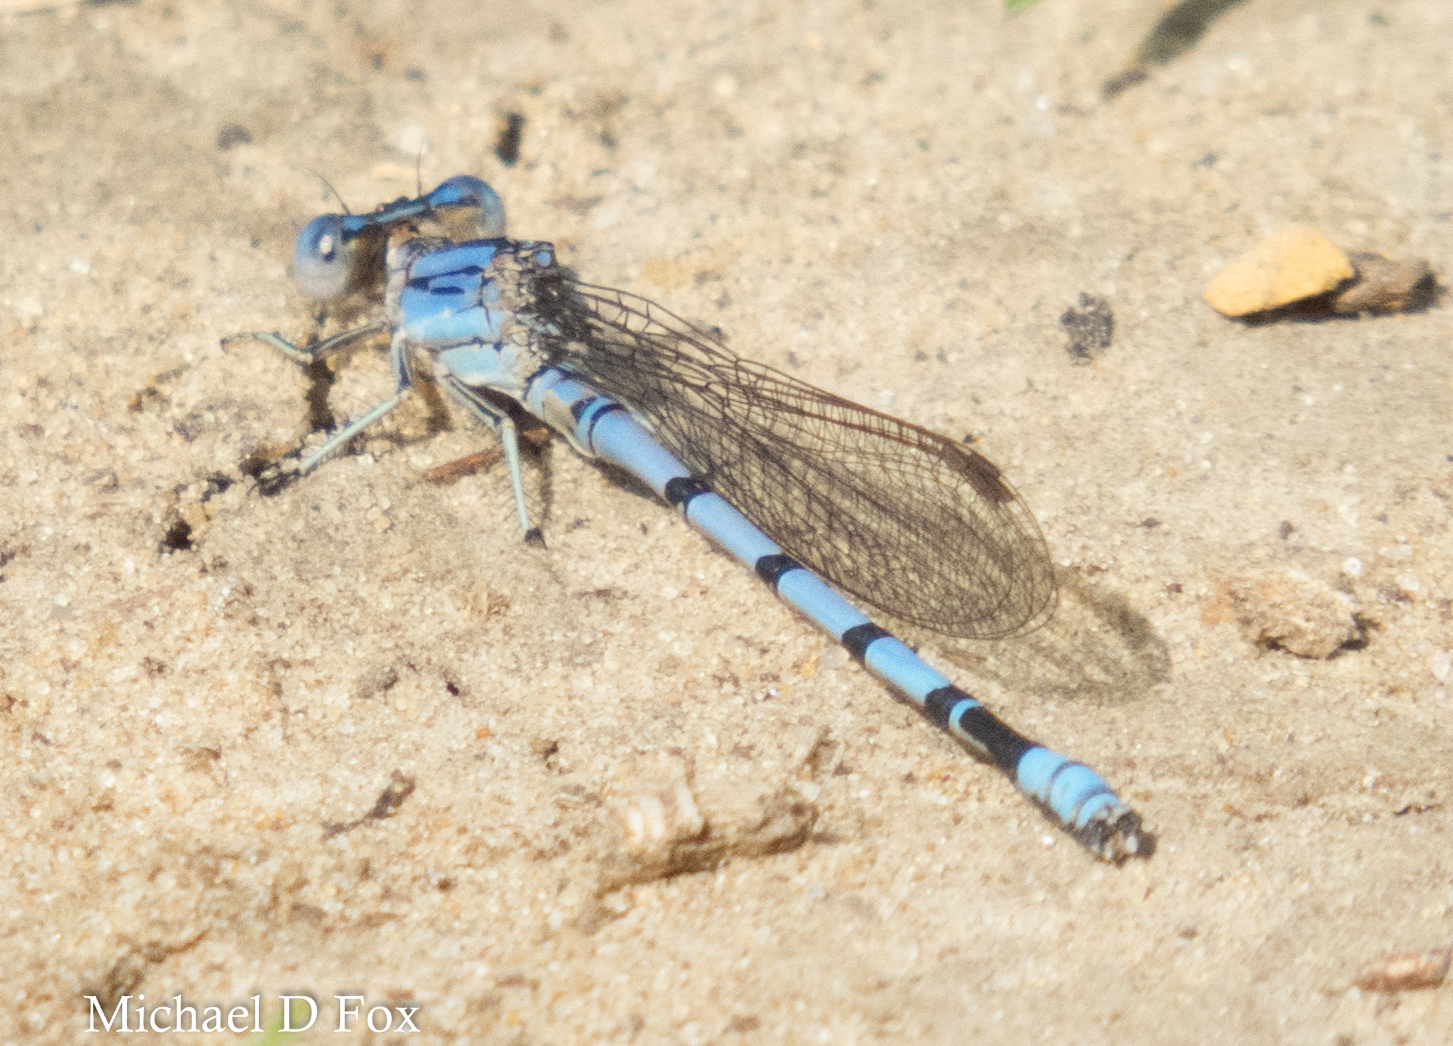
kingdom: Animalia
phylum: Arthropoda
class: Insecta
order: Odonata
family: Coenagrionidae
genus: Argia
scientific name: Argia nahuana
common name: Aztec dancer
